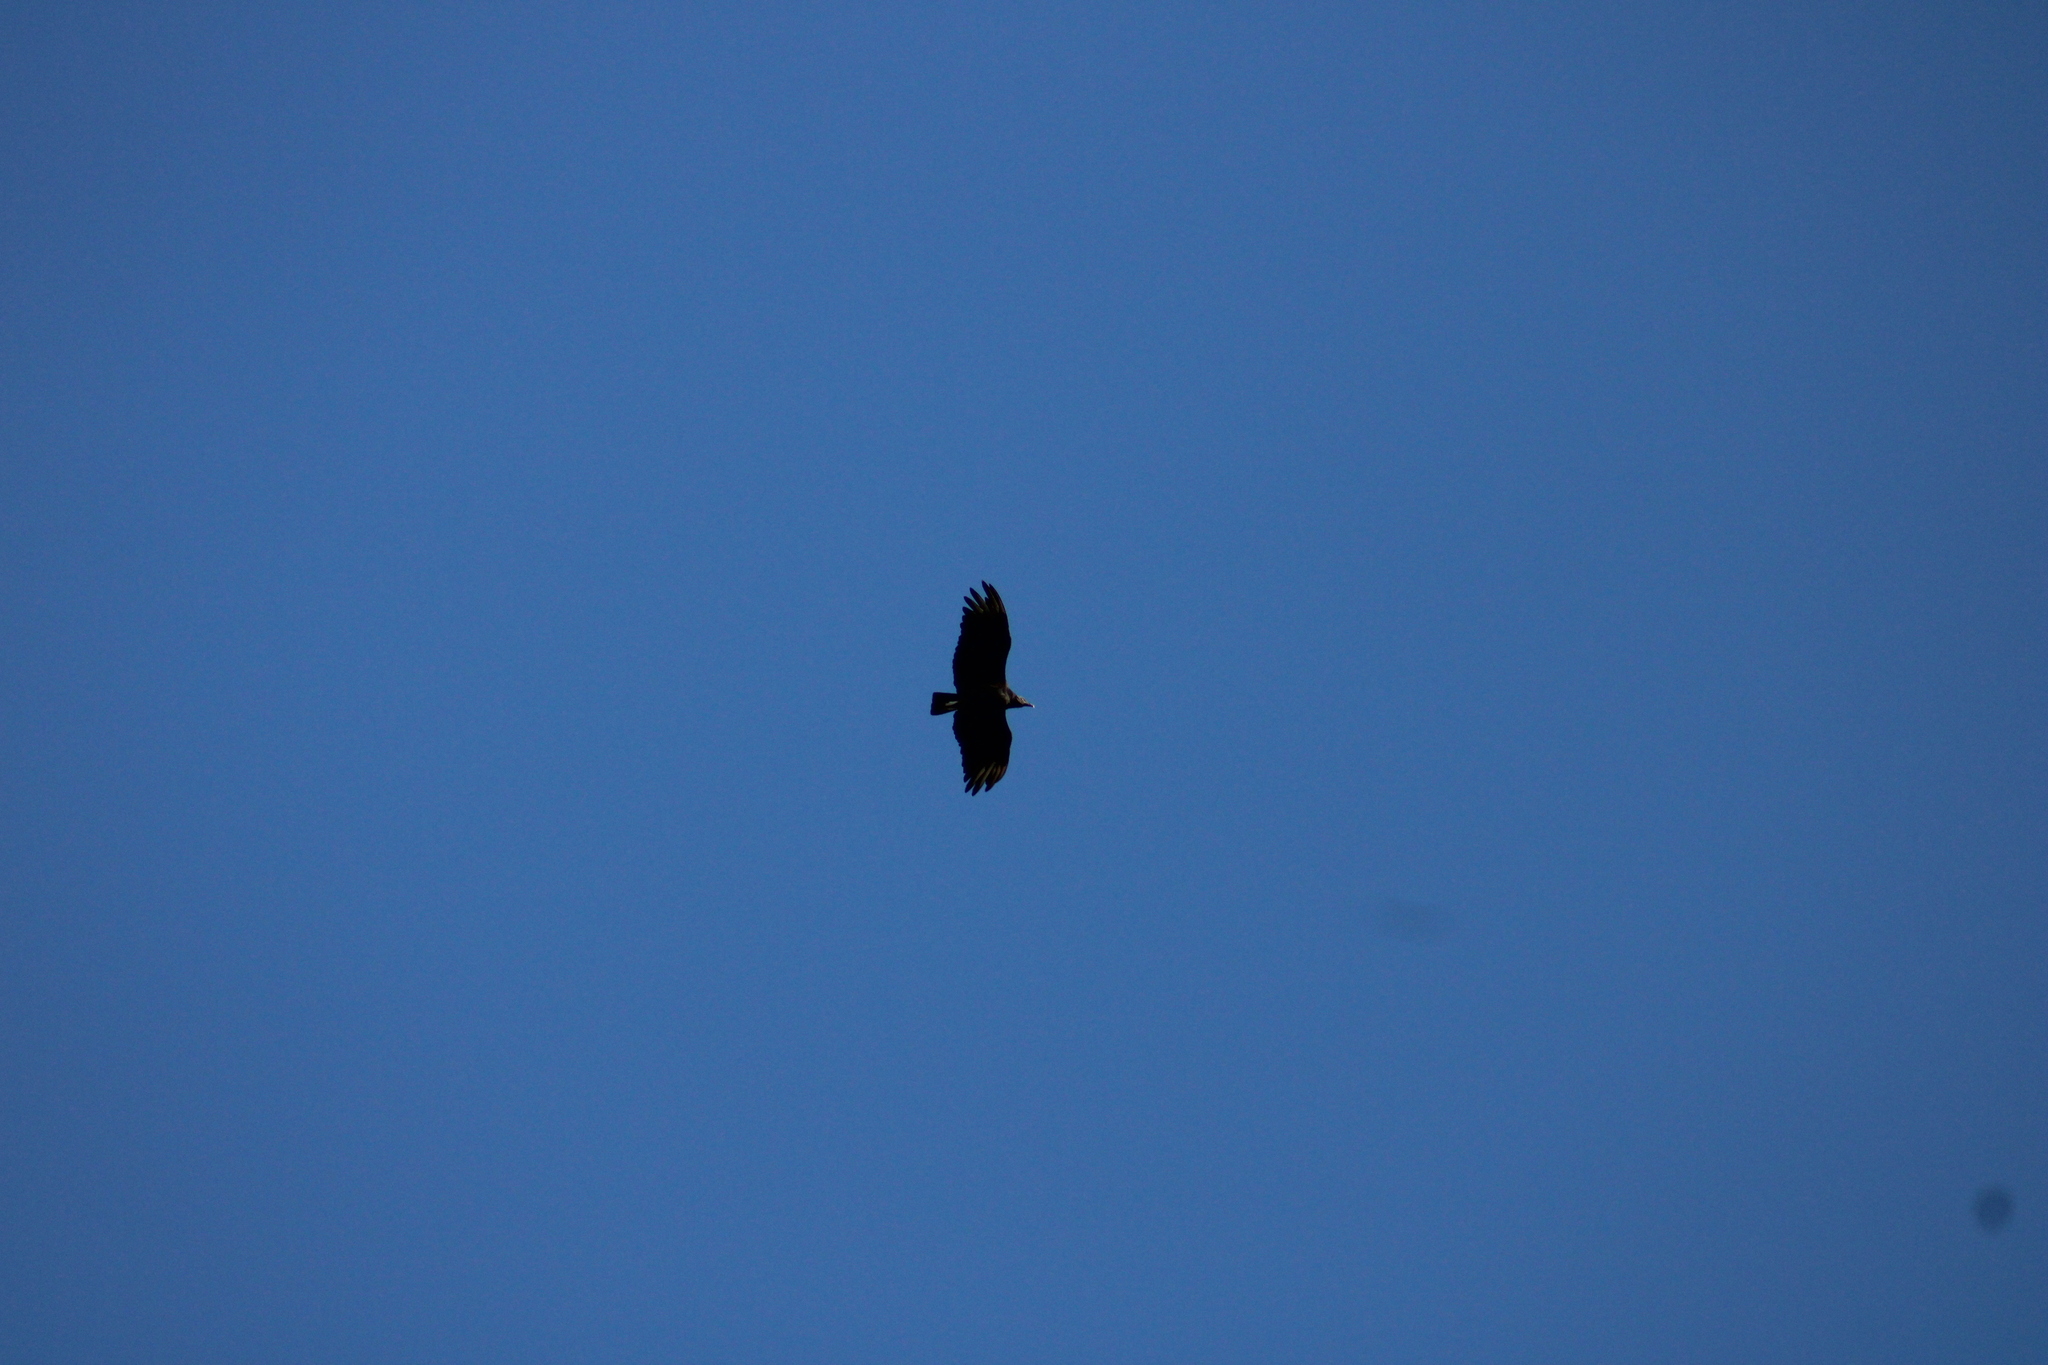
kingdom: Animalia
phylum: Chordata
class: Aves
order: Accipitriformes
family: Cathartidae
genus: Coragyps
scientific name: Coragyps atratus
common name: Black vulture
